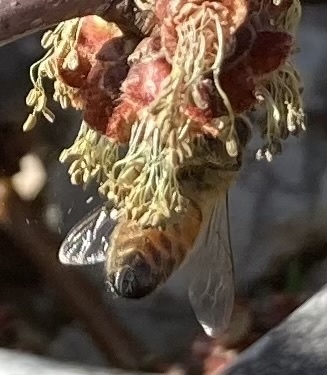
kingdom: Animalia
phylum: Arthropoda
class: Insecta
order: Hymenoptera
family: Apidae
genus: Apis
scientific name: Apis mellifera
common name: Honey bee
